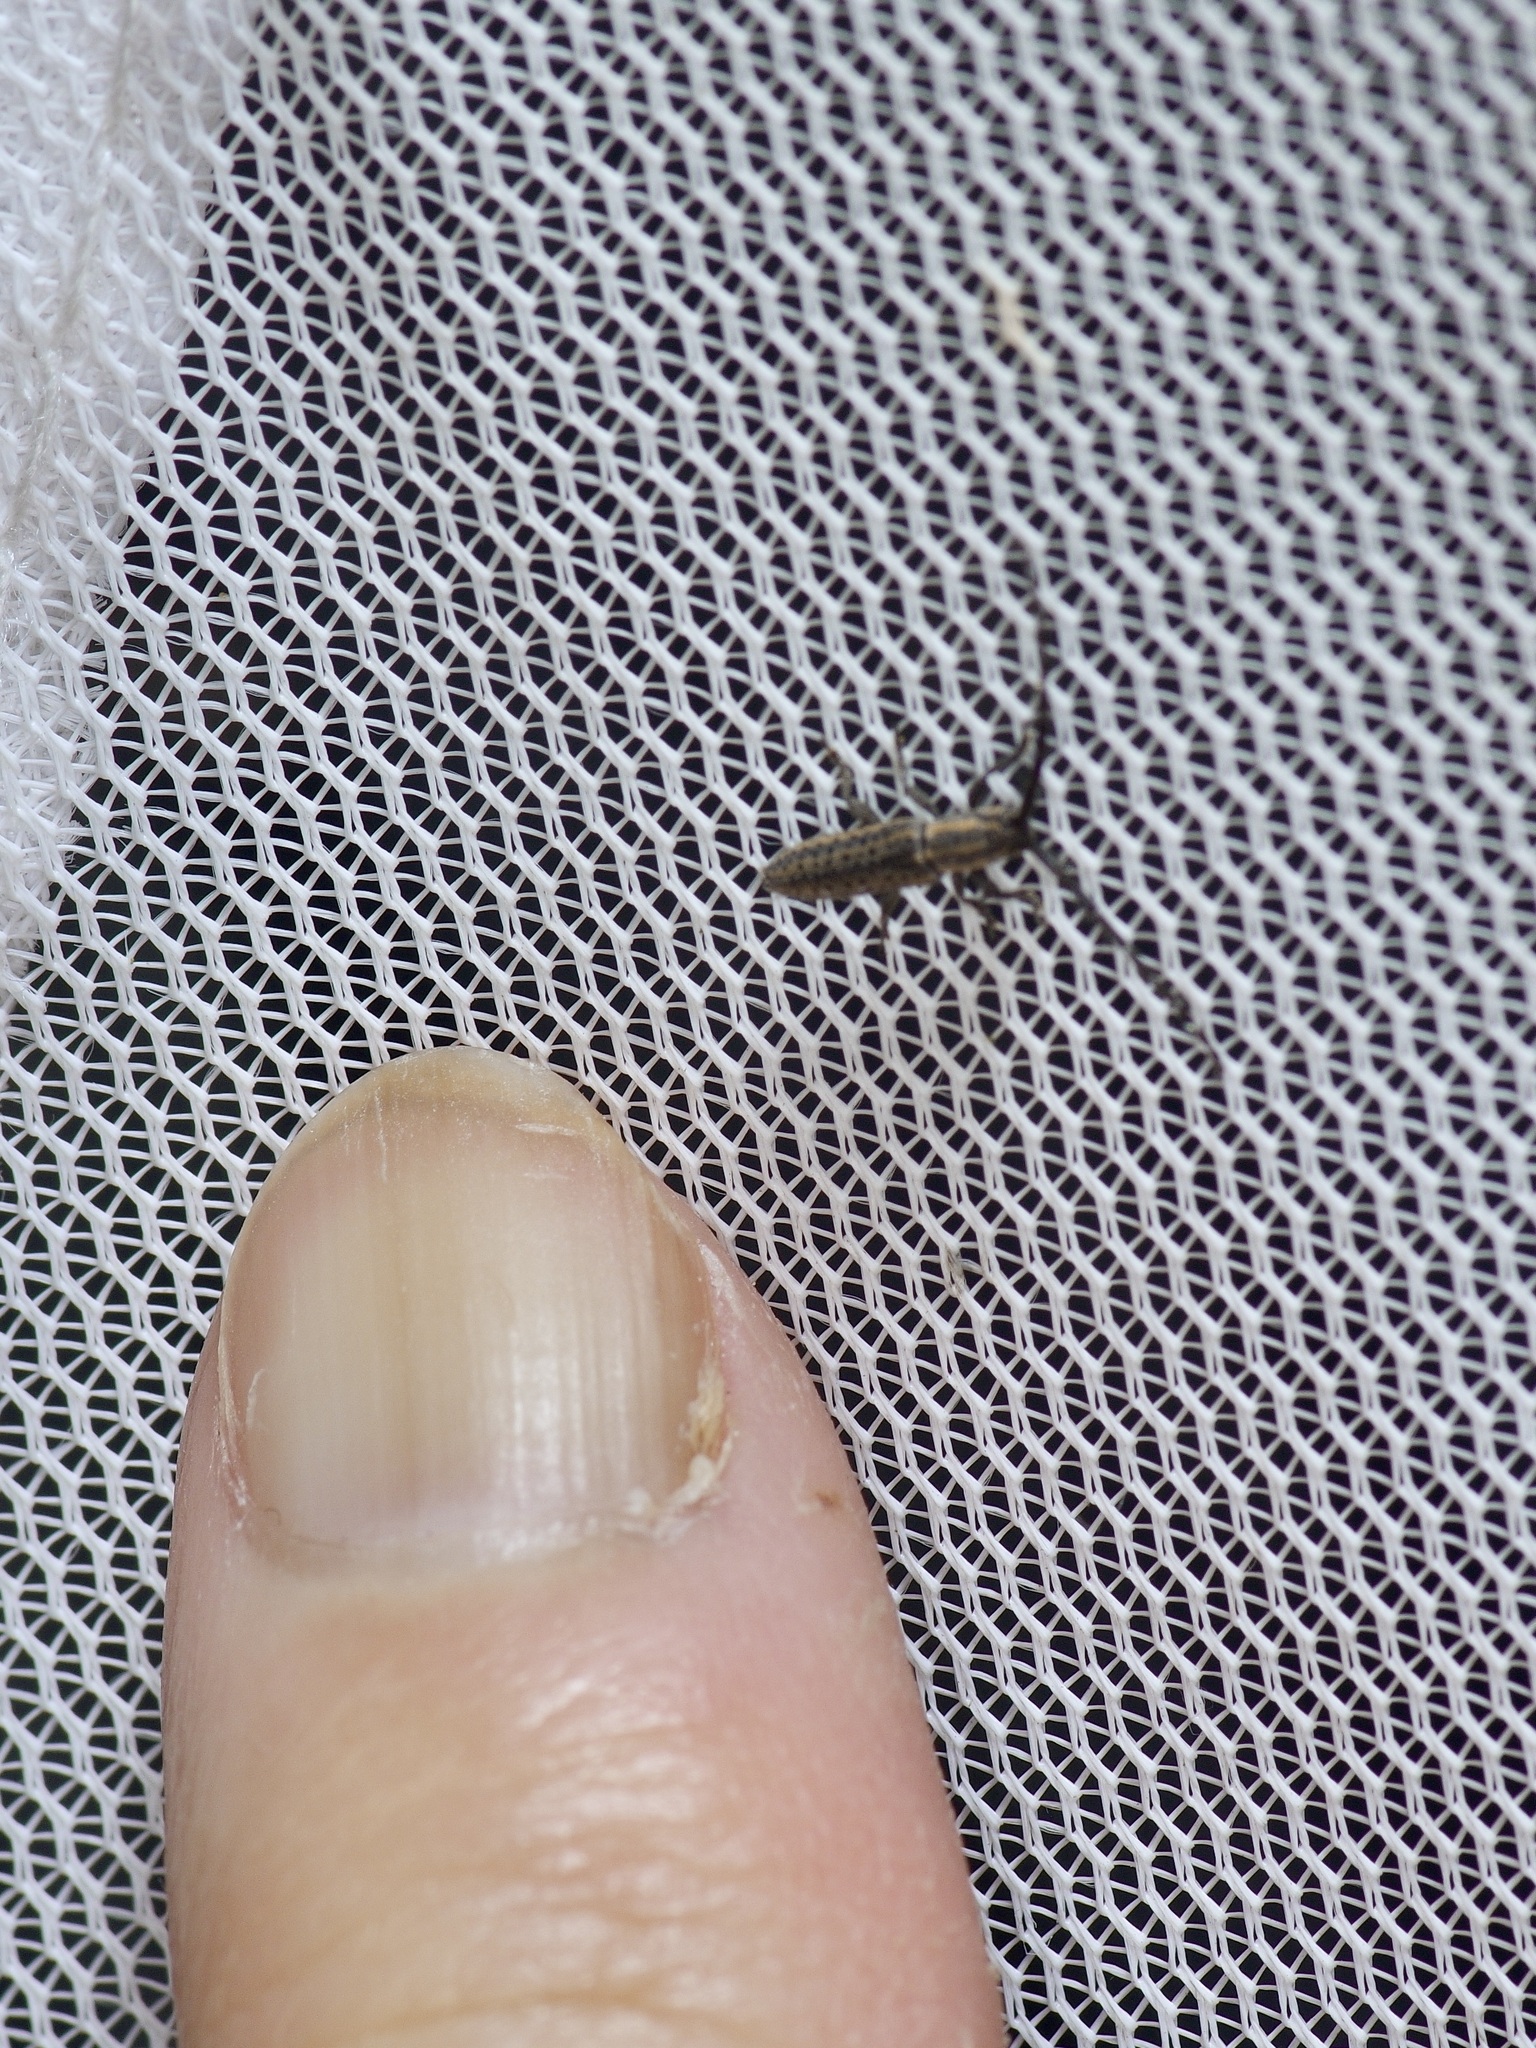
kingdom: Animalia
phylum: Arthropoda
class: Insecta
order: Coleoptera
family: Cerambycidae
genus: Dorcasta
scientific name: Dorcasta cinerea
